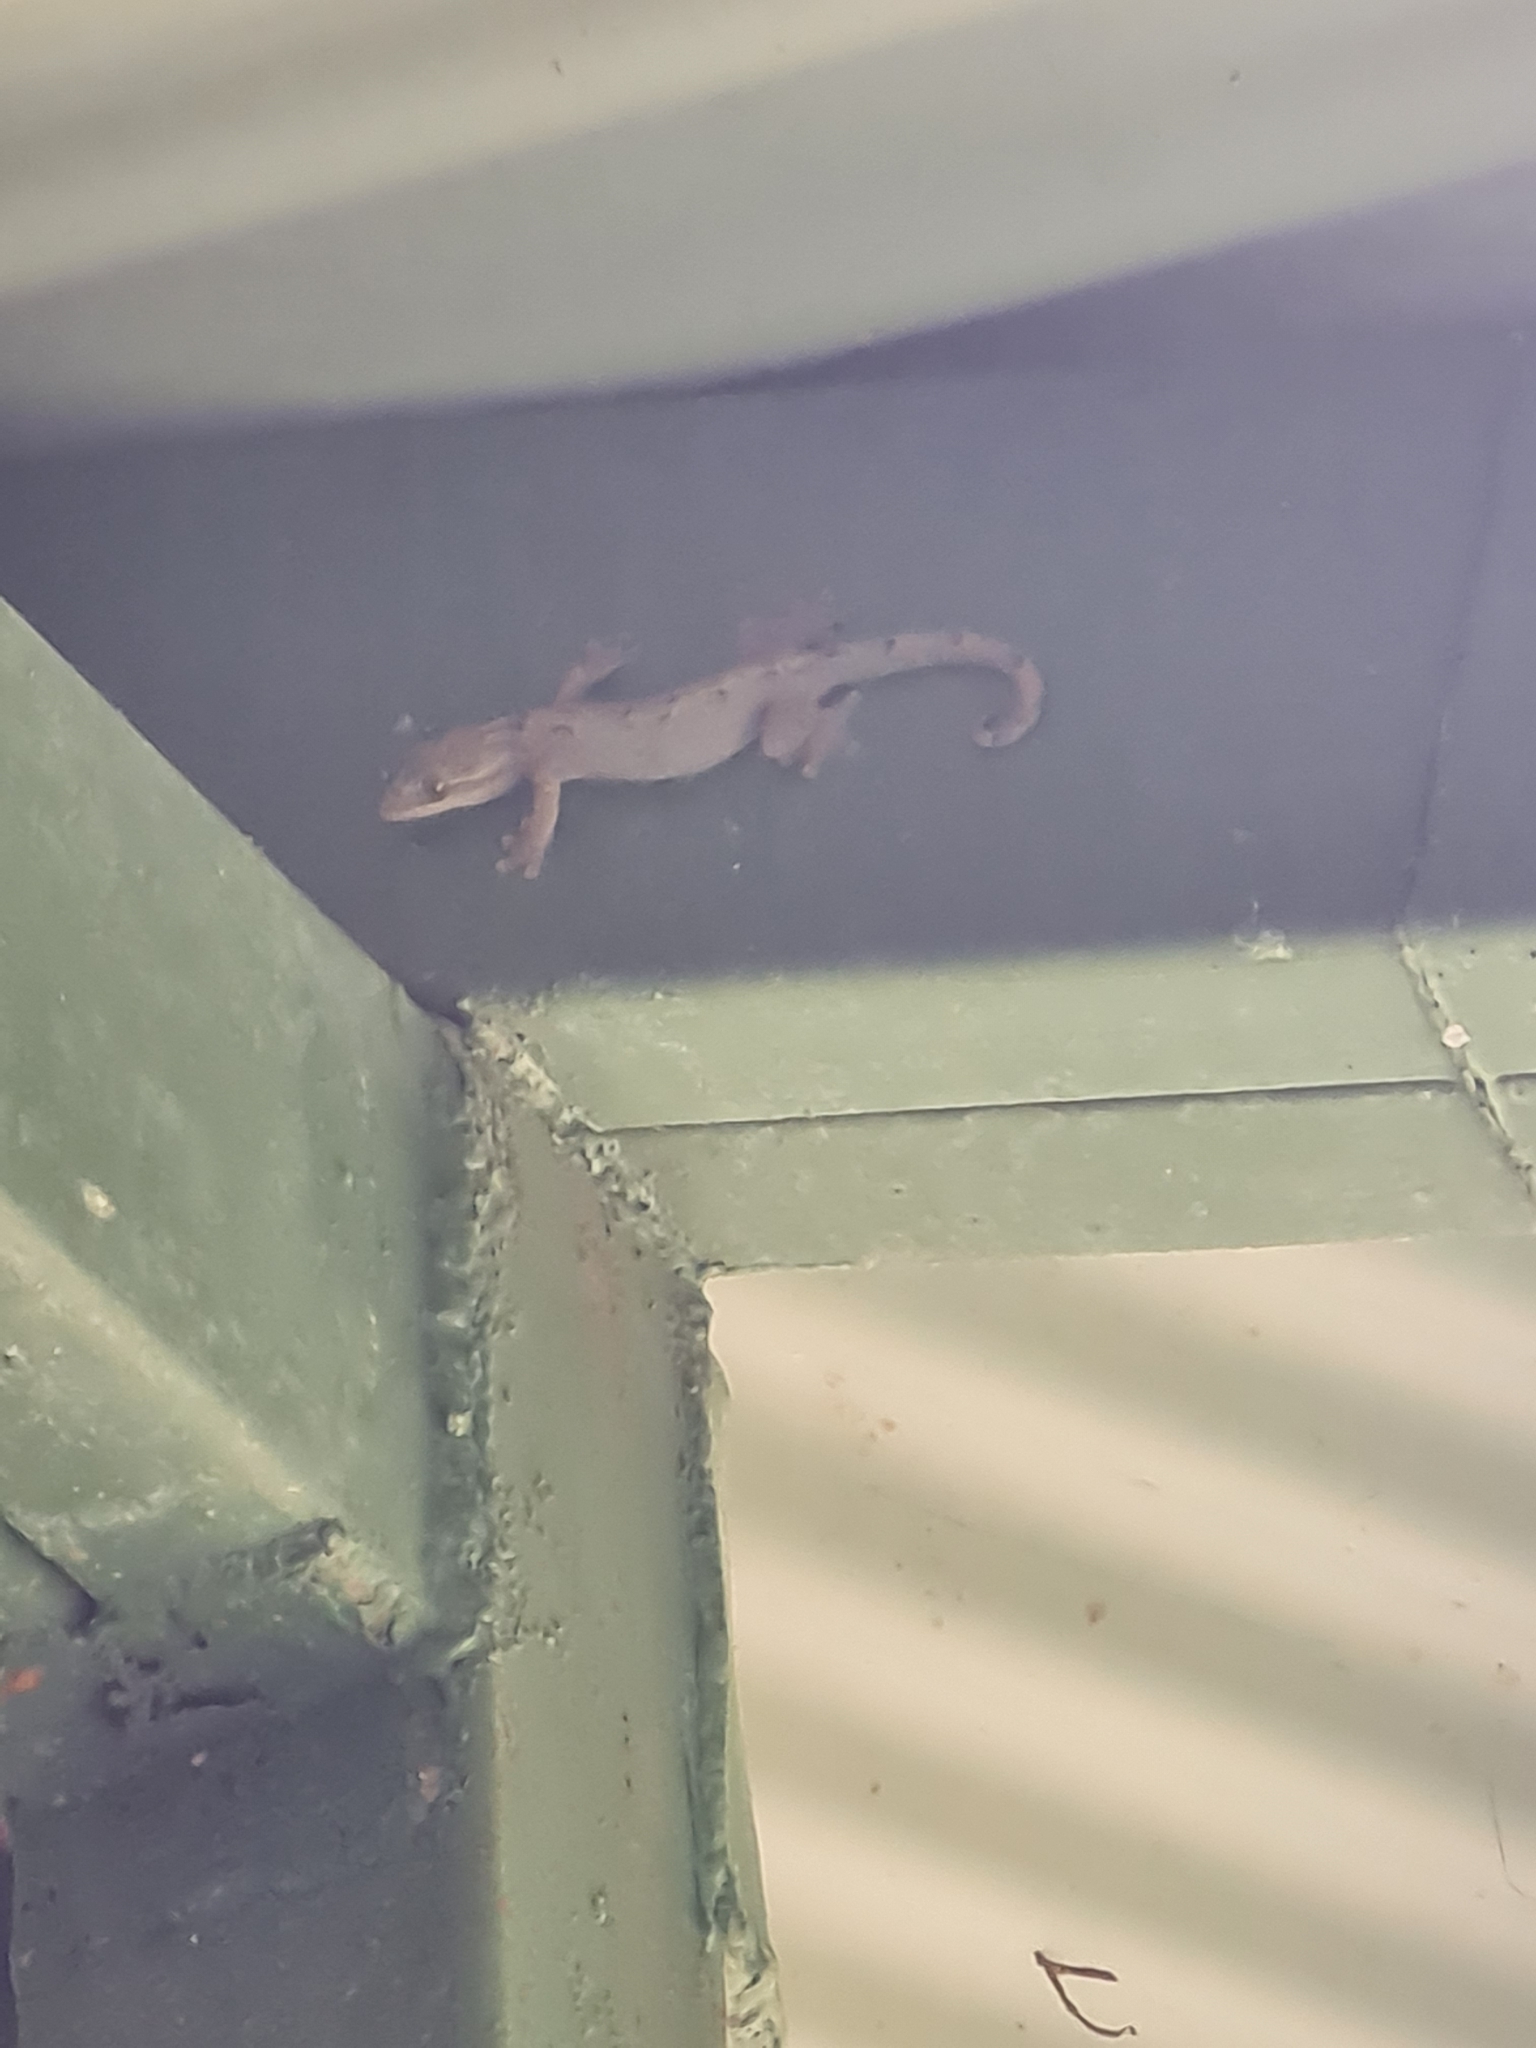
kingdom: Animalia
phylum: Chordata
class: Squamata
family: Phyllodactylidae
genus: Thecadactylus
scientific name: Thecadactylus rapicauda
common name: Turnip-tailed gecko
